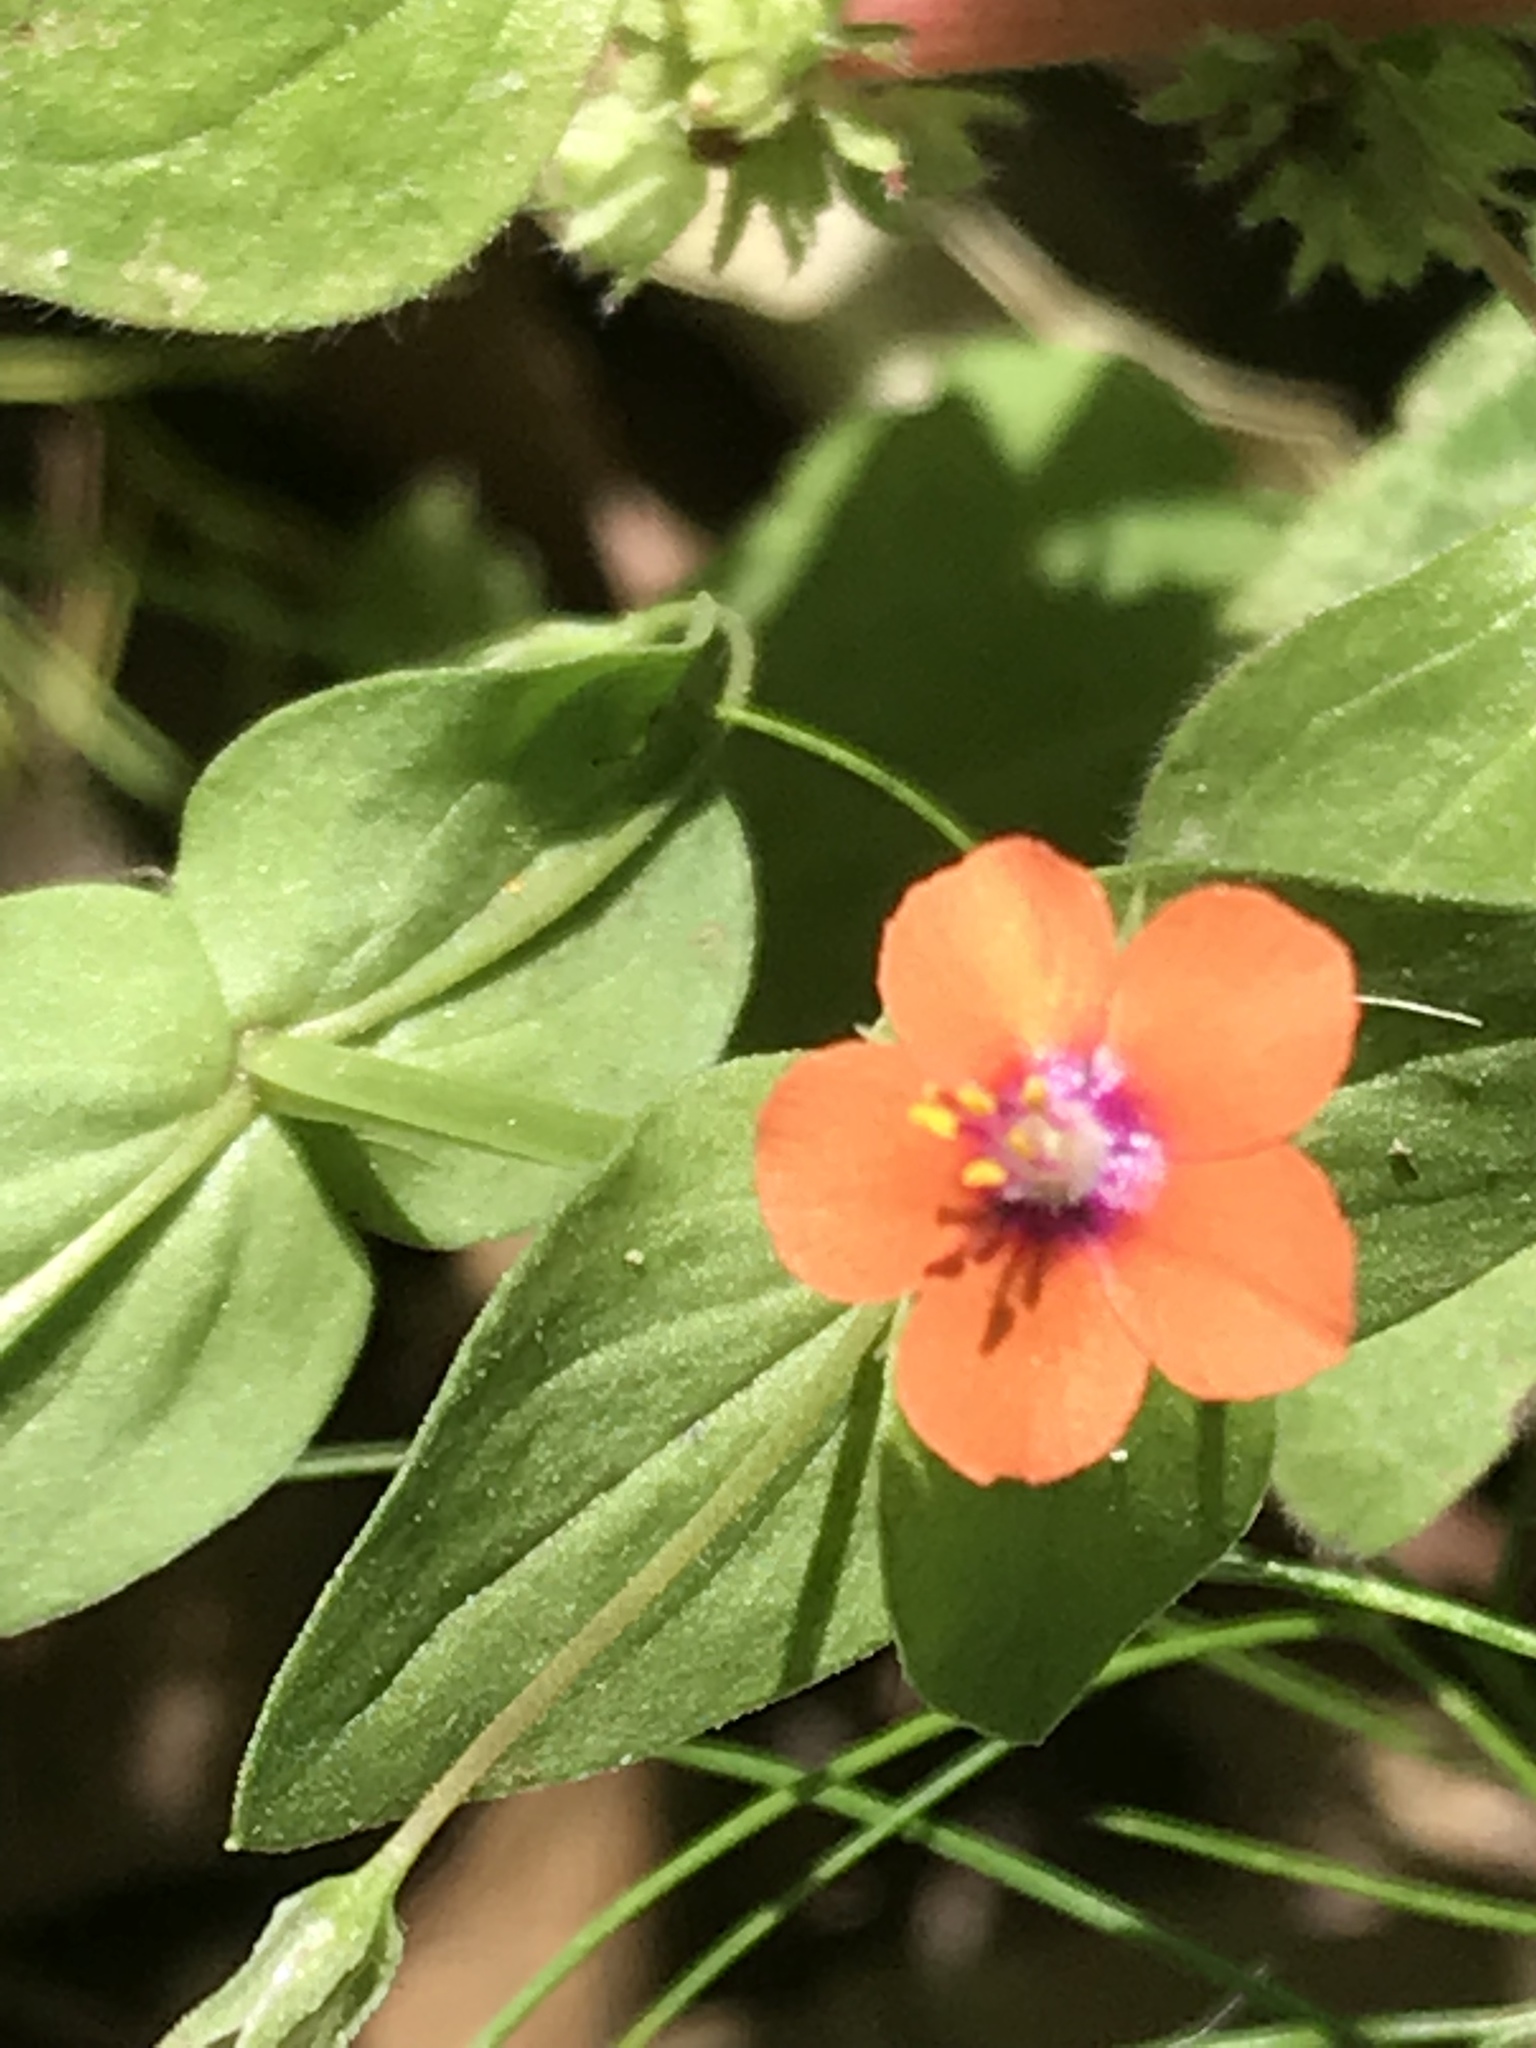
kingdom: Plantae
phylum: Tracheophyta
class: Magnoliopsida
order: Ericales
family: Primulaceae
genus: Lysimachia
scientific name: Lysimachia arvensis
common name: Scarlet pimpernel
